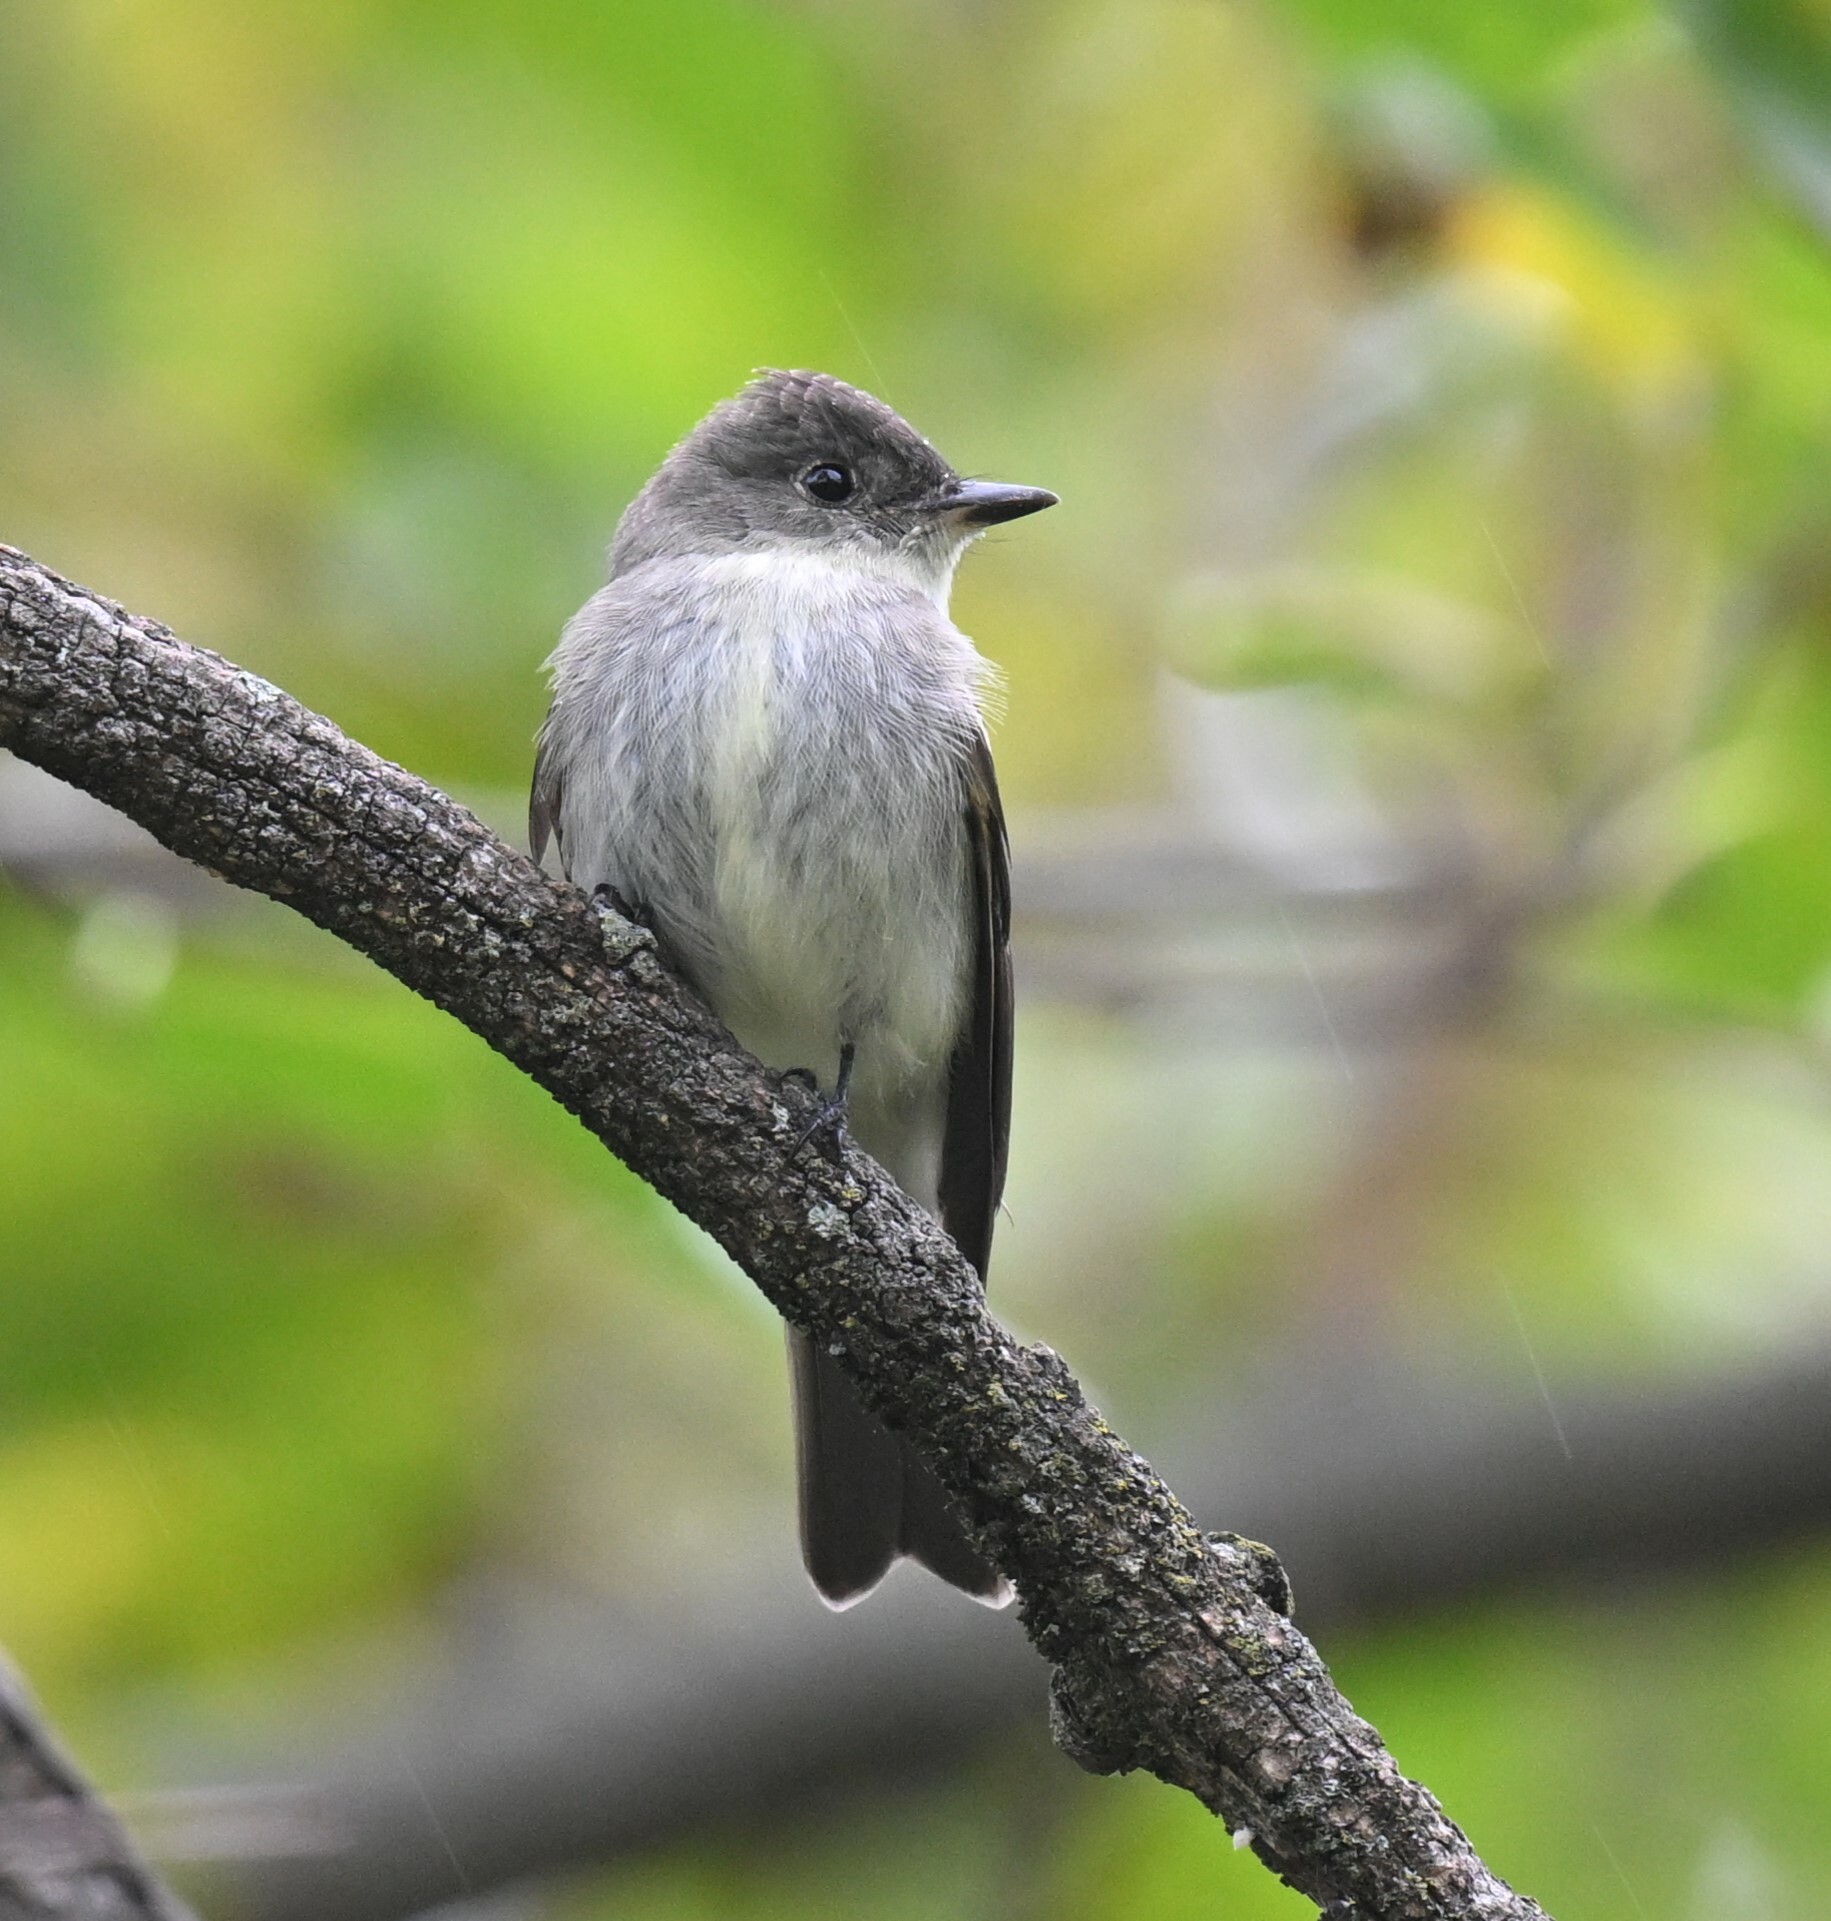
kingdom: Animalia
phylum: Chordata
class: Aves
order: Passeriformes
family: Tyrannidae
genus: Contopus
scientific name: Contopus virens
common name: Eastern wood-pewee
